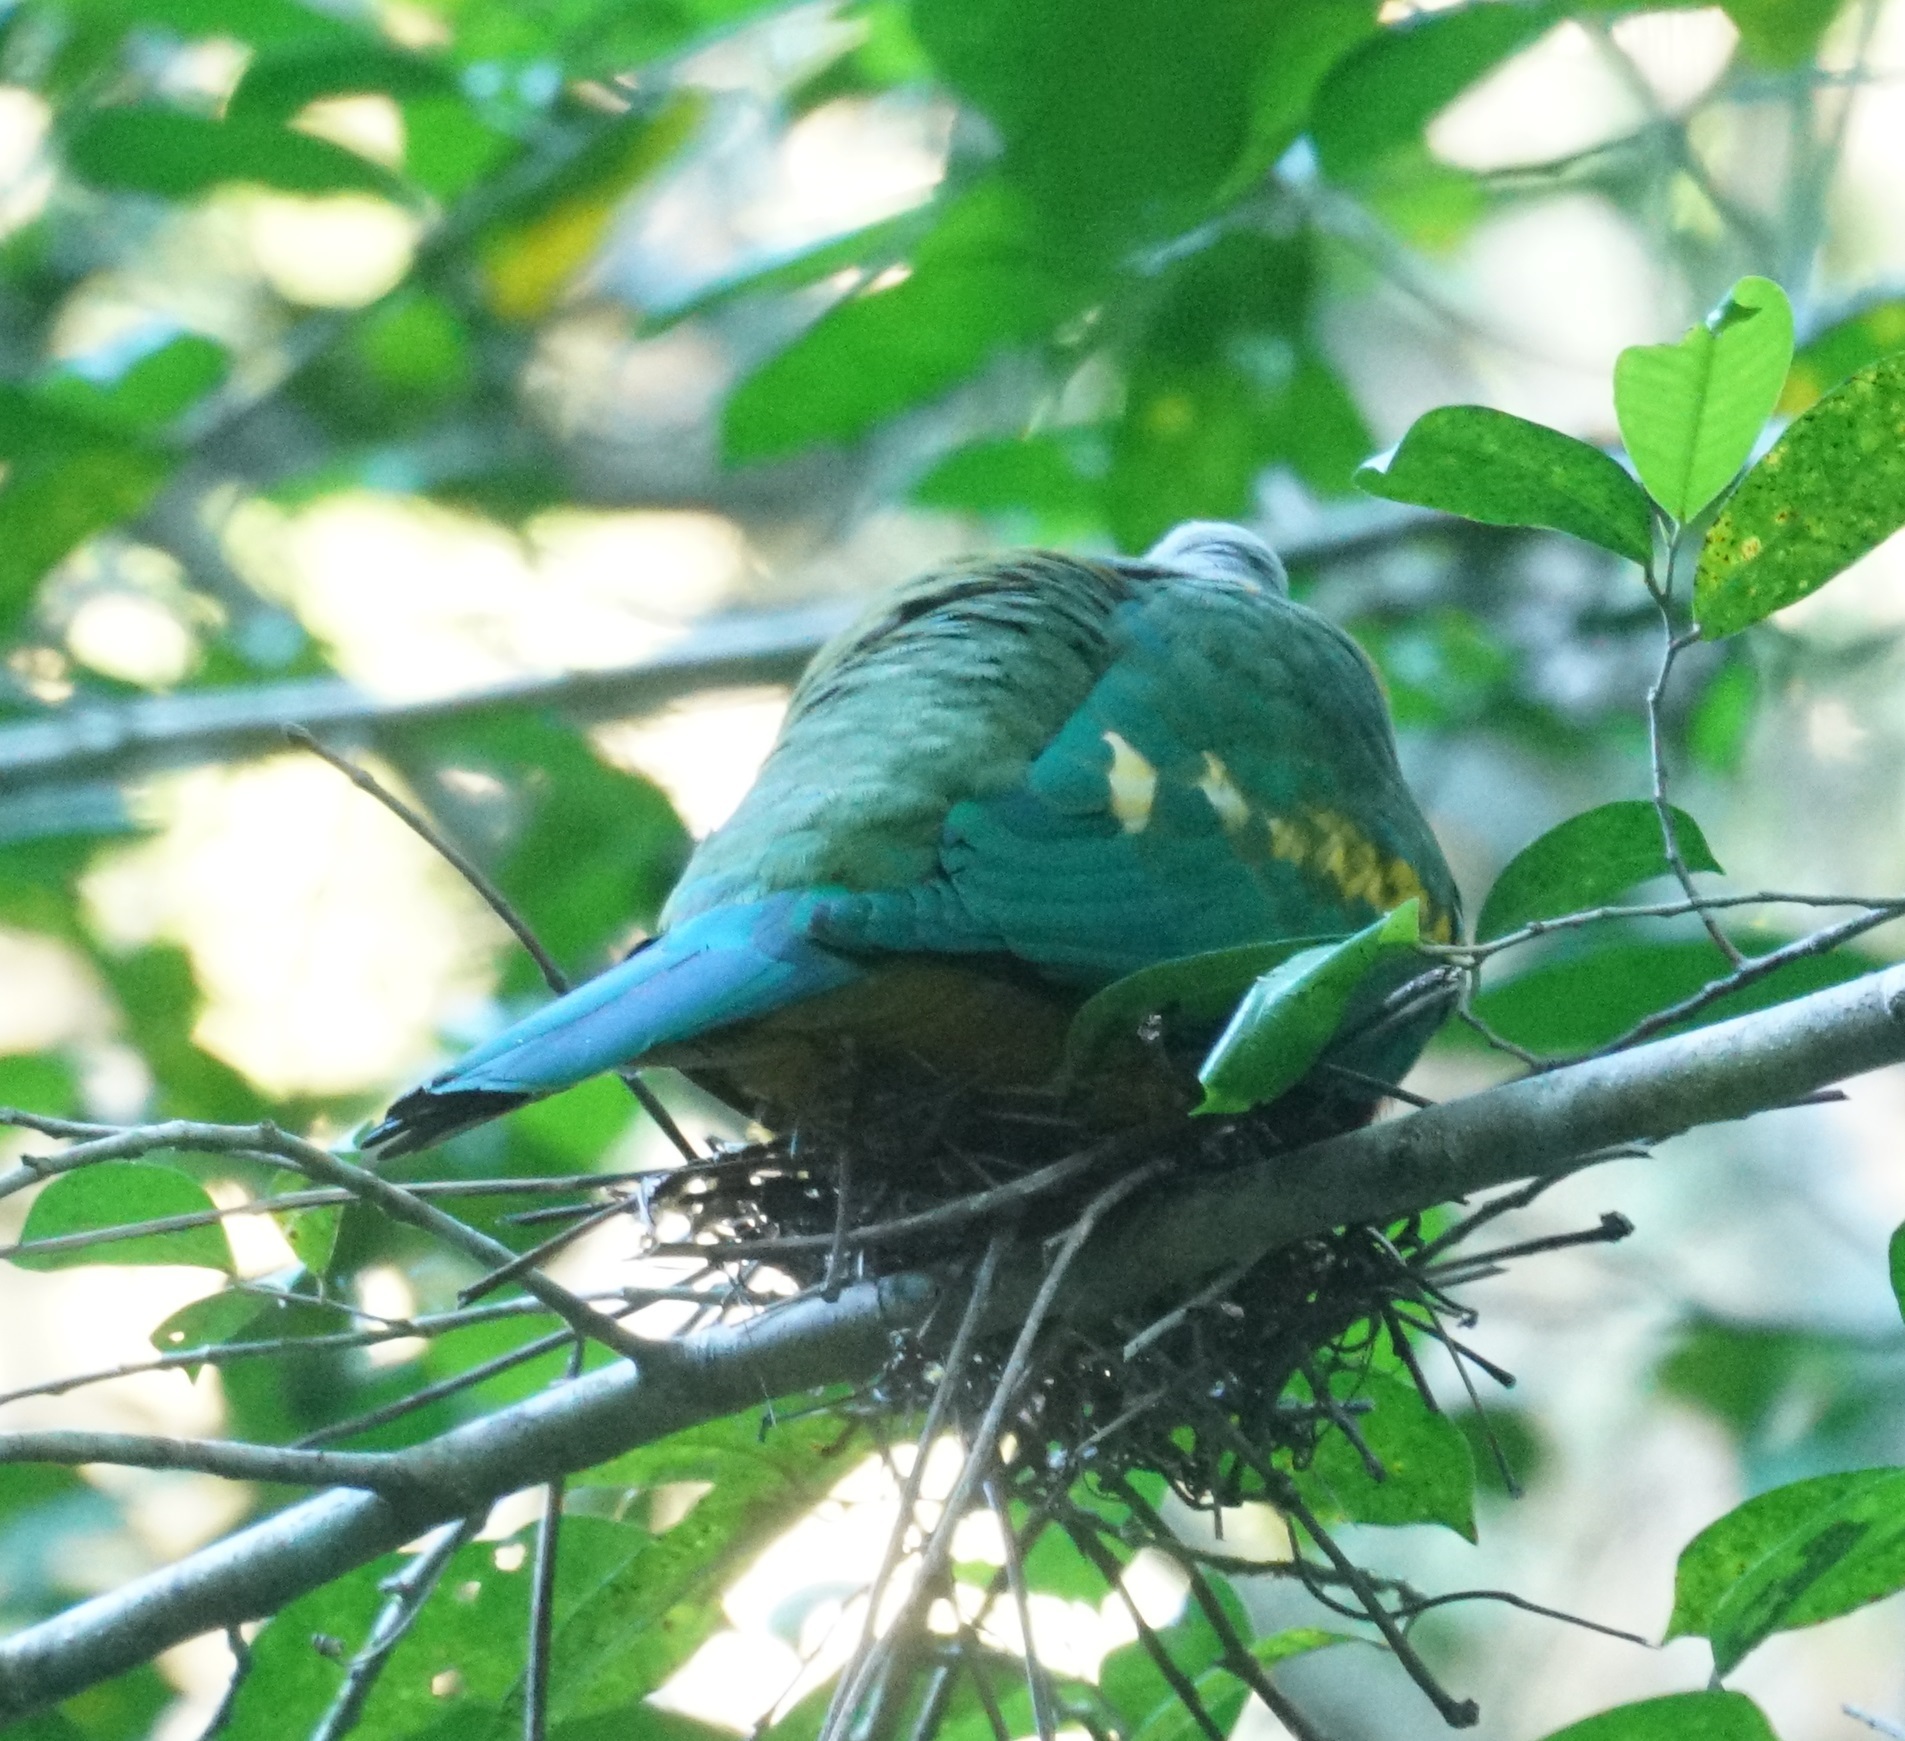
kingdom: Animalia
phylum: Chordata
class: Aves
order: Columbiformes
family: Columbidae
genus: Ptilinopus
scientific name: Ptilinopus magnificus
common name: Wompoo fruit dove
